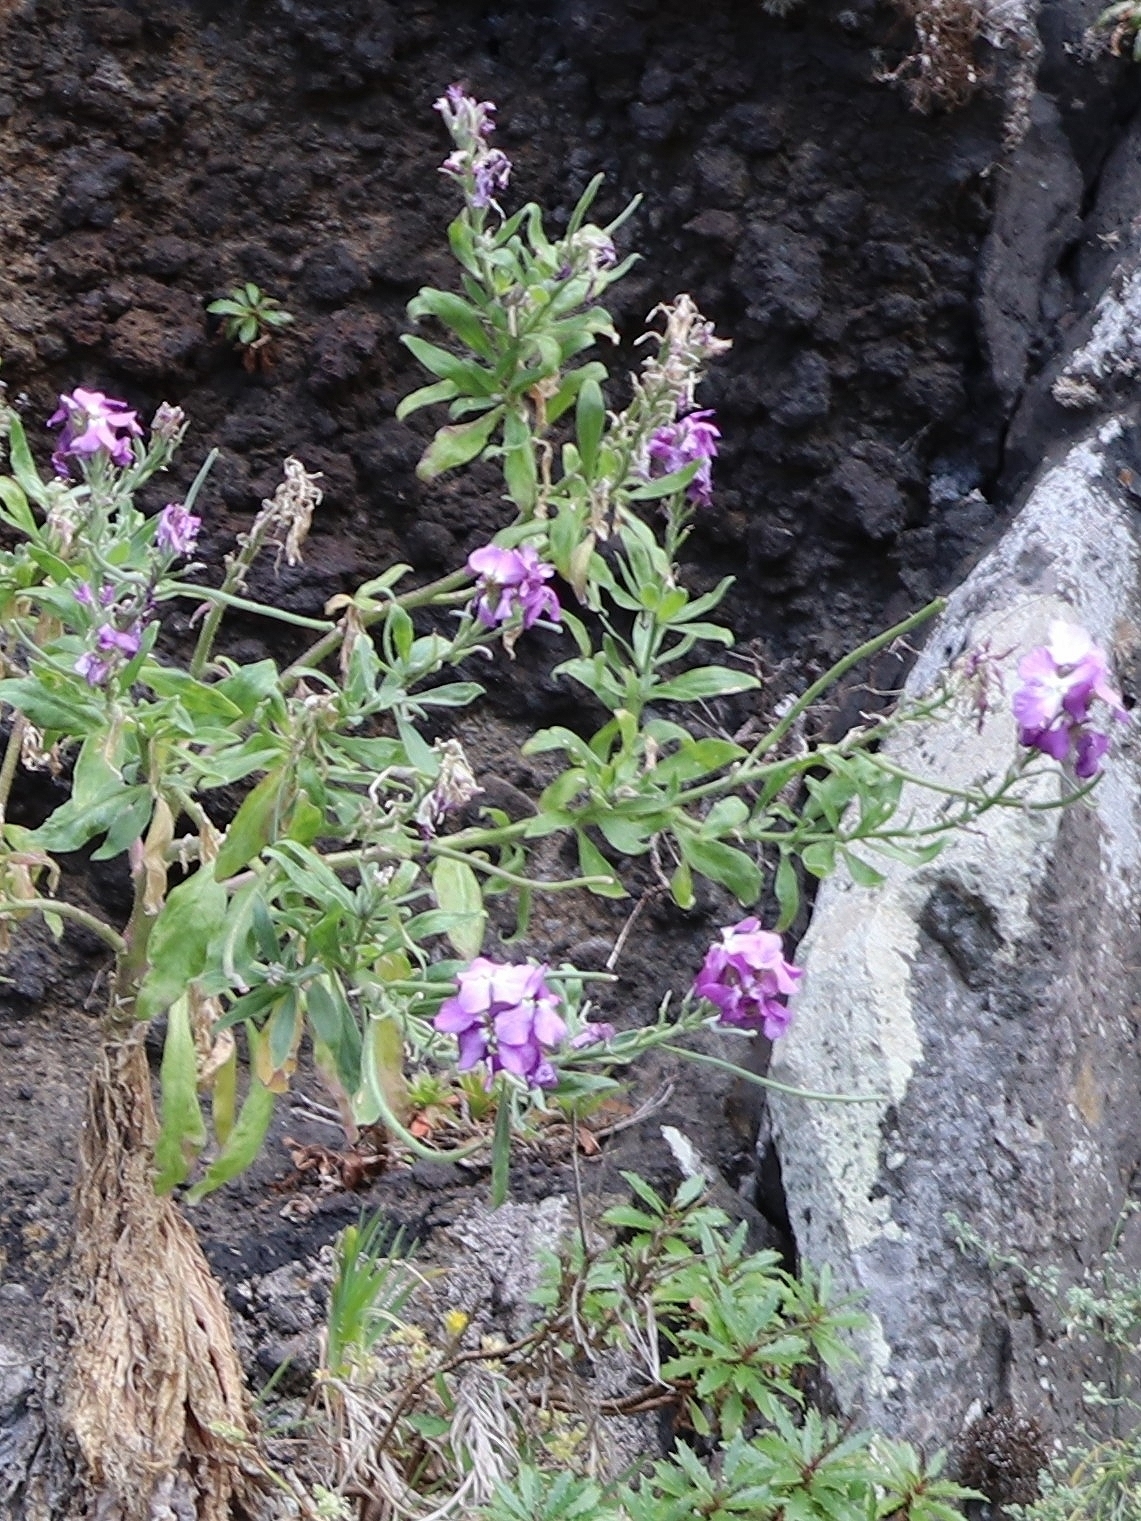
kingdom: Plantae
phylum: Tracheophyta
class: Magnoliopsida
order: Brassicales
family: Brassicaceae
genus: Matthiola
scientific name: Matthiola maderensis
